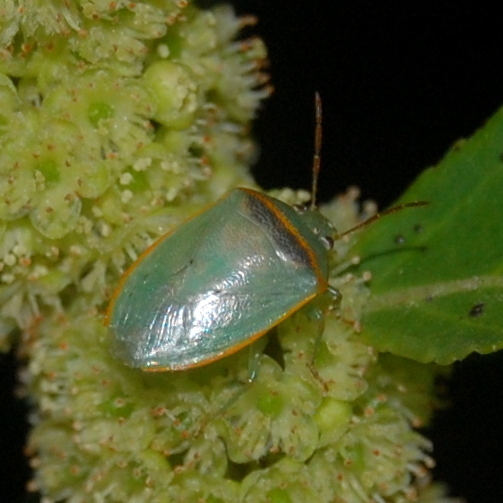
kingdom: Animalia
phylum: Arthropoda
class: Insecta
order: Hemiptera
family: Pentatomidae
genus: Piezodorus
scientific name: Piezodorus guildinii
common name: Redbanded stink bug
